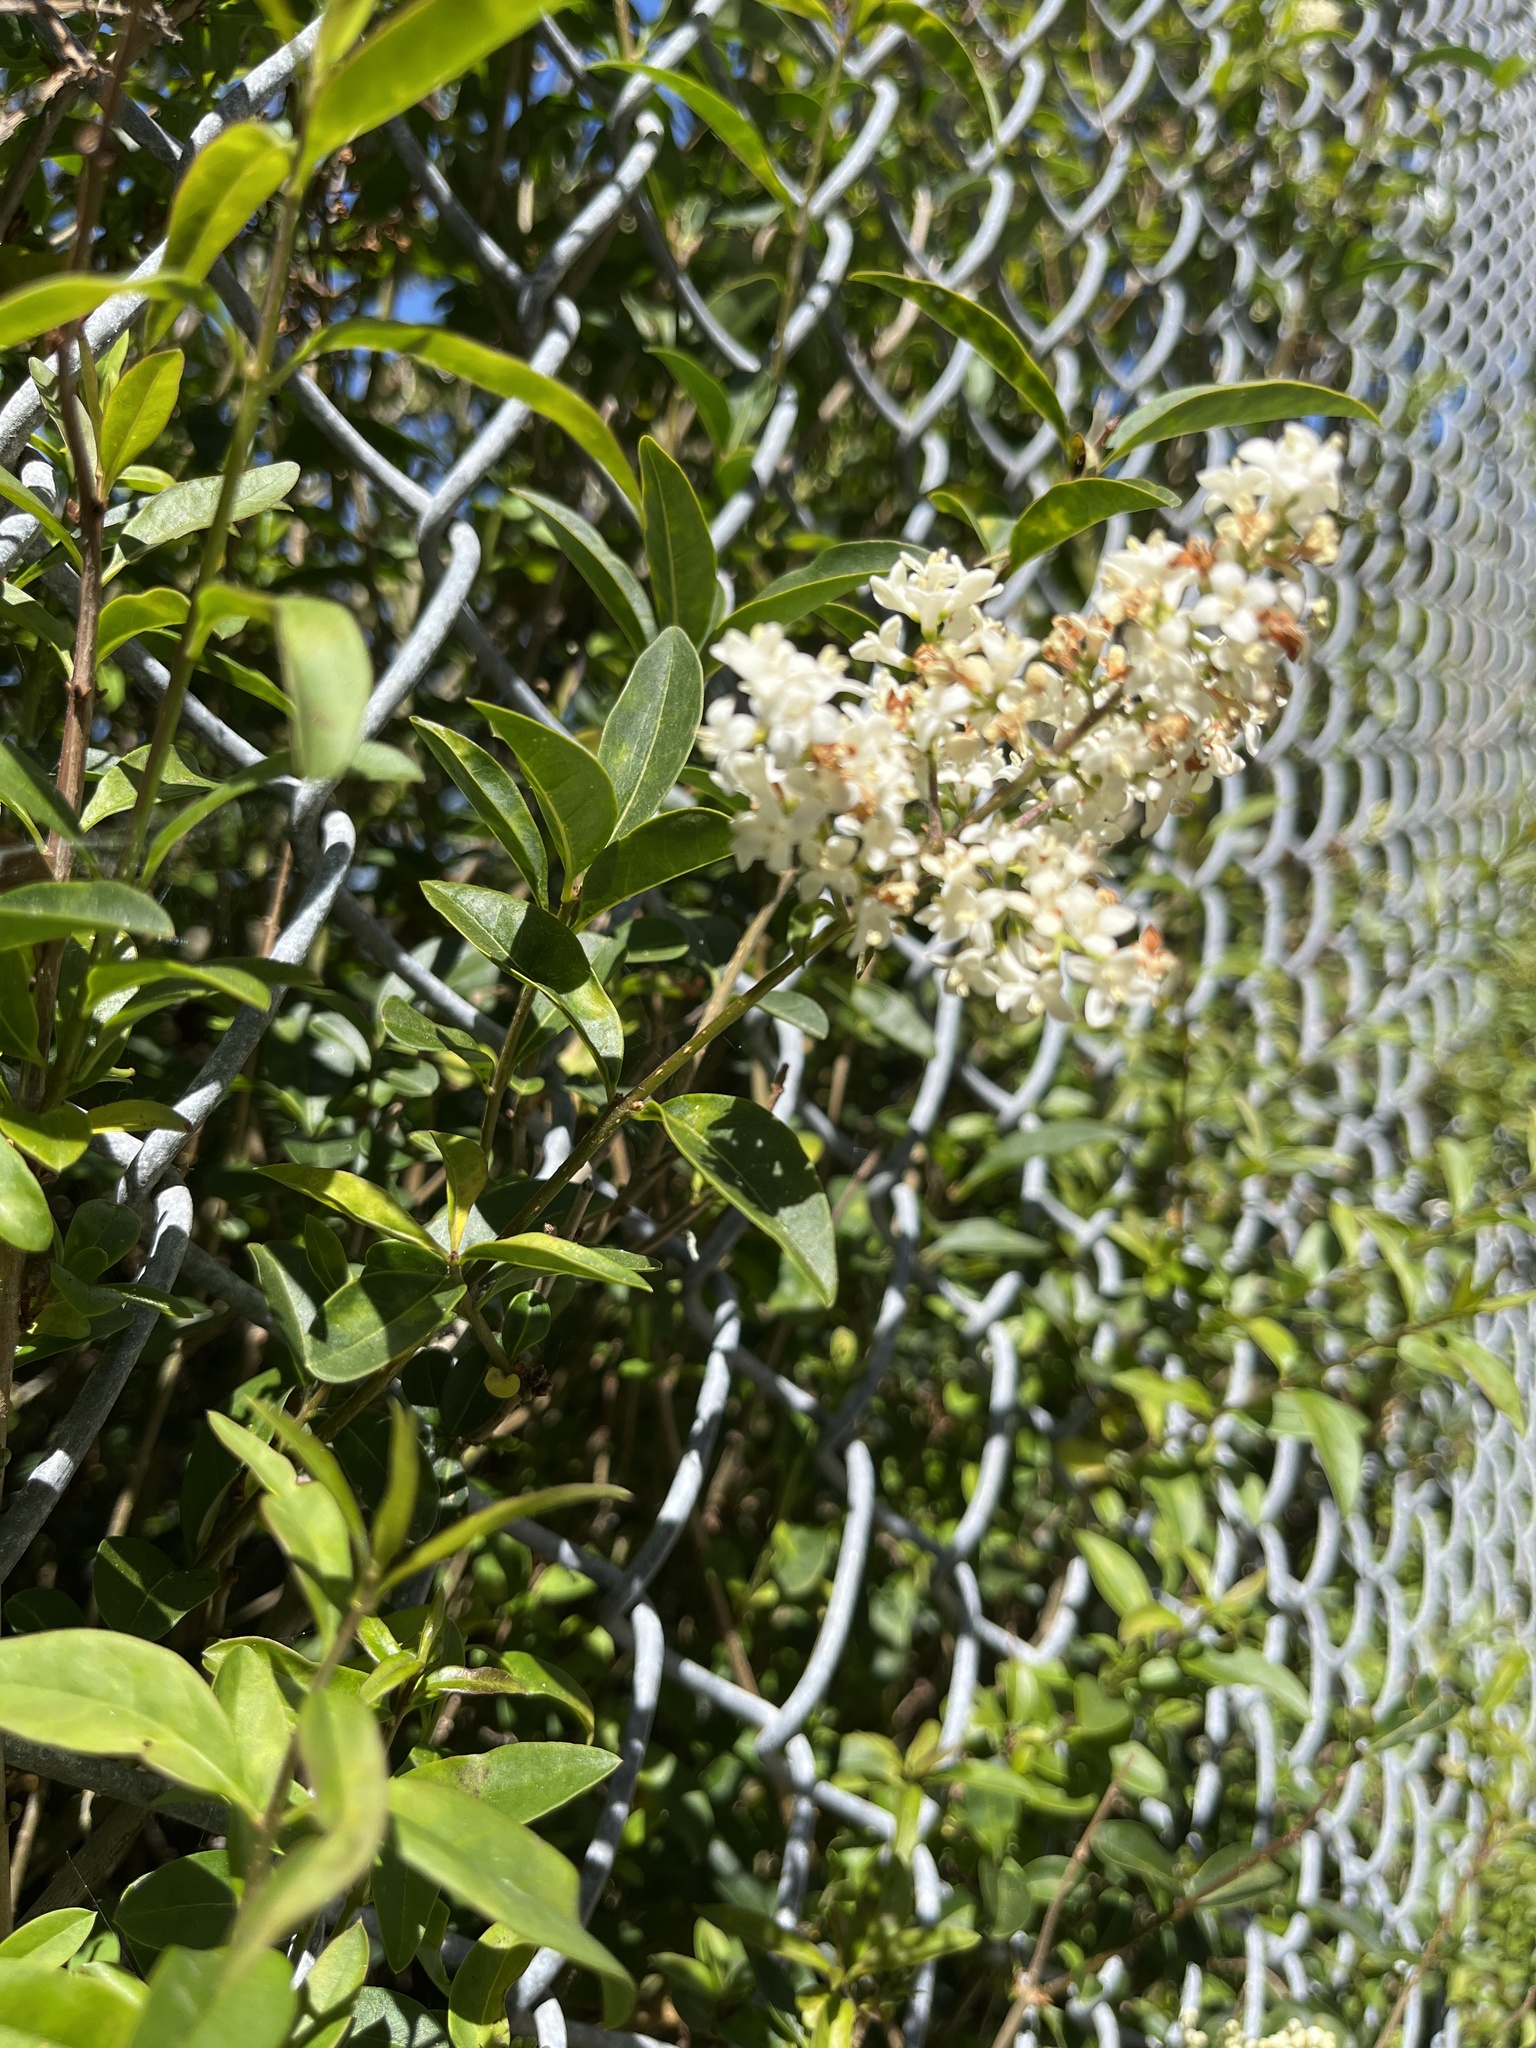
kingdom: Plantae
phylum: Tracheophyta
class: Magnoliopsida
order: Lamiales
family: Oleaceae
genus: Ligustrum
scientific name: Ligustrum vulgare
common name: Wild privet
